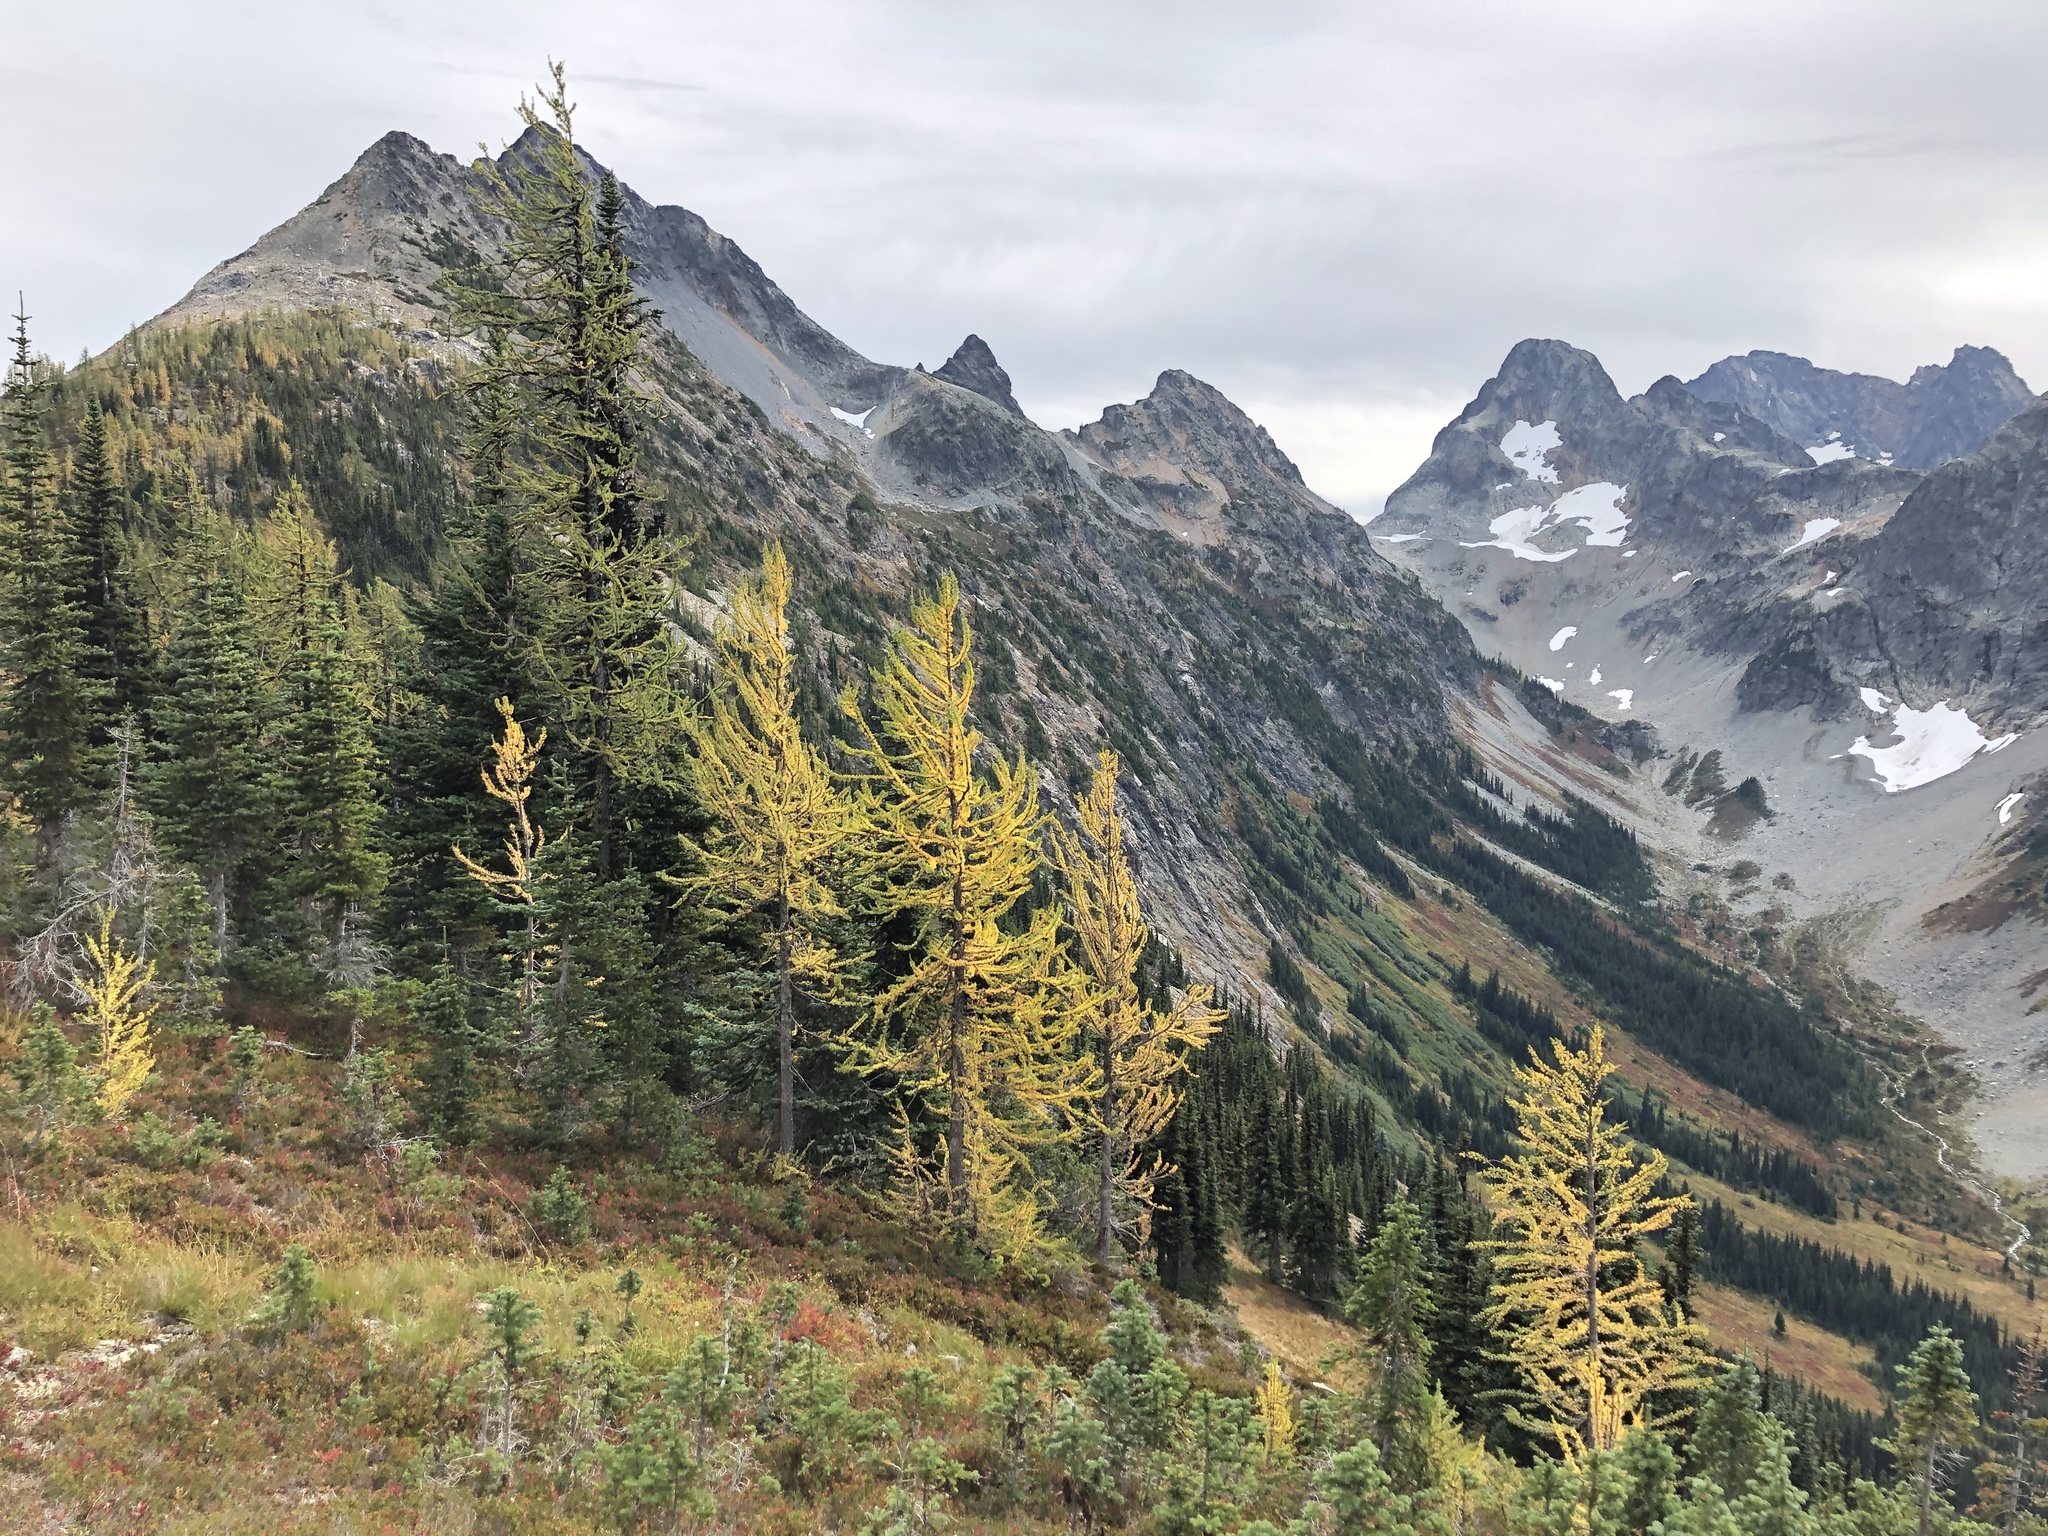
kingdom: Plantae
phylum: Tracheophyta
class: Pinopsida
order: Pinales
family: Pinaceae
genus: Larix
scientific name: Larix lyallii
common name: Alpine larch
